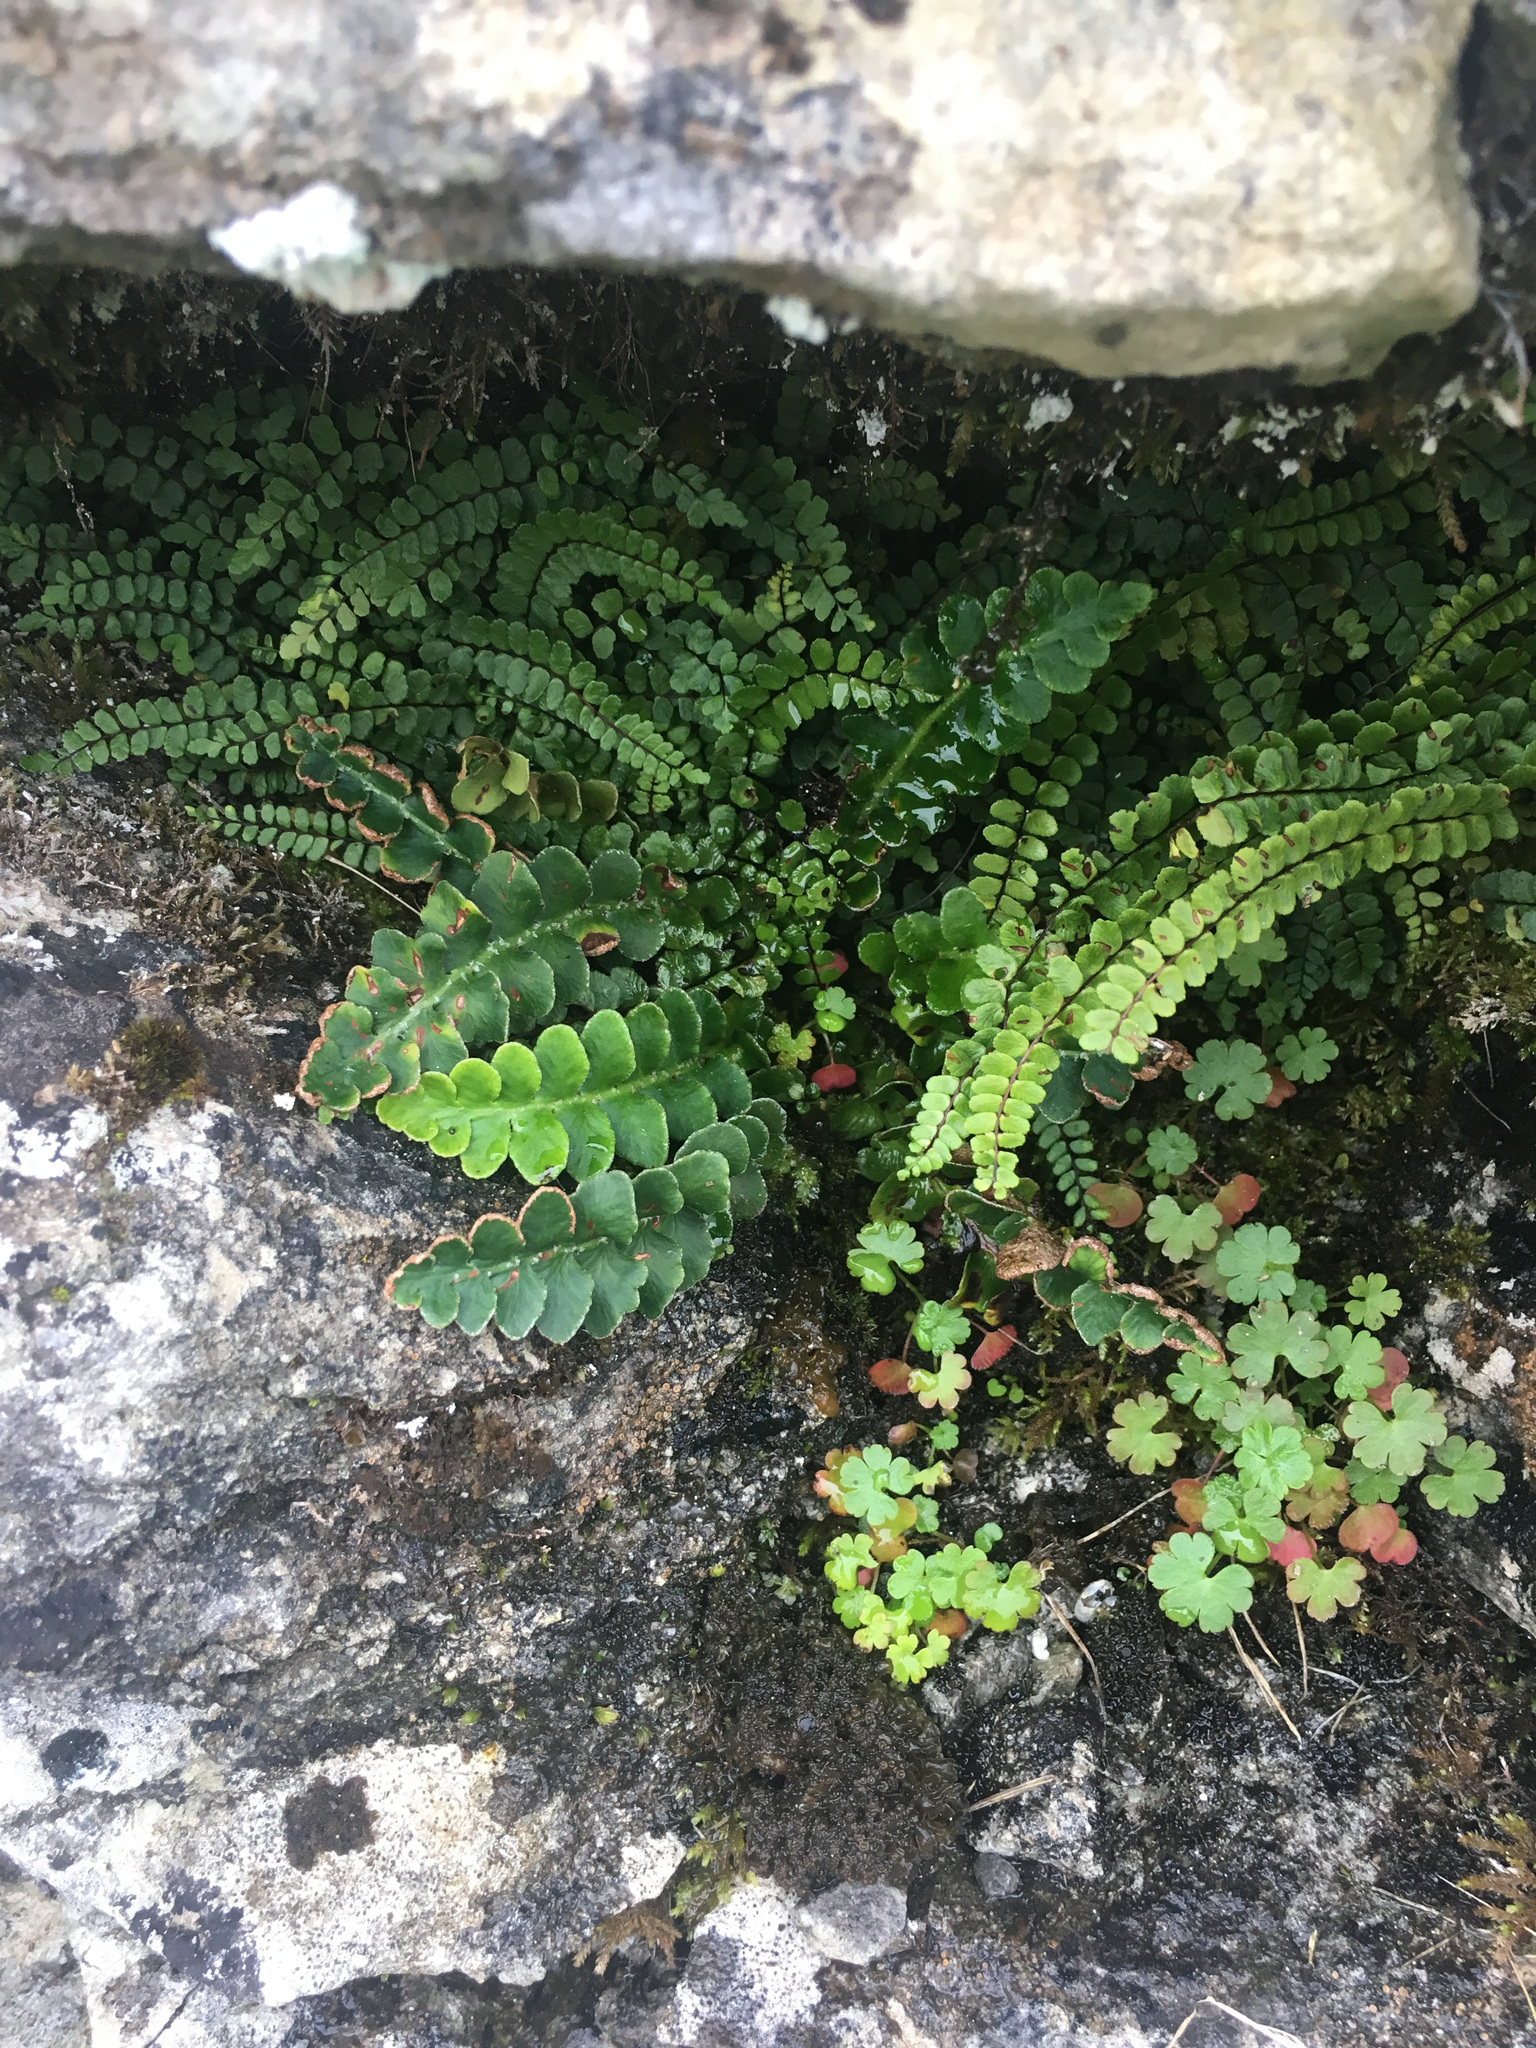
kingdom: Plantae
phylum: Tracheophyta
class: Magnoliopsida
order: Geraniales
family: Geraniaceae
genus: Geranium
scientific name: Geranium lucidum
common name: Shining crane's-bill
